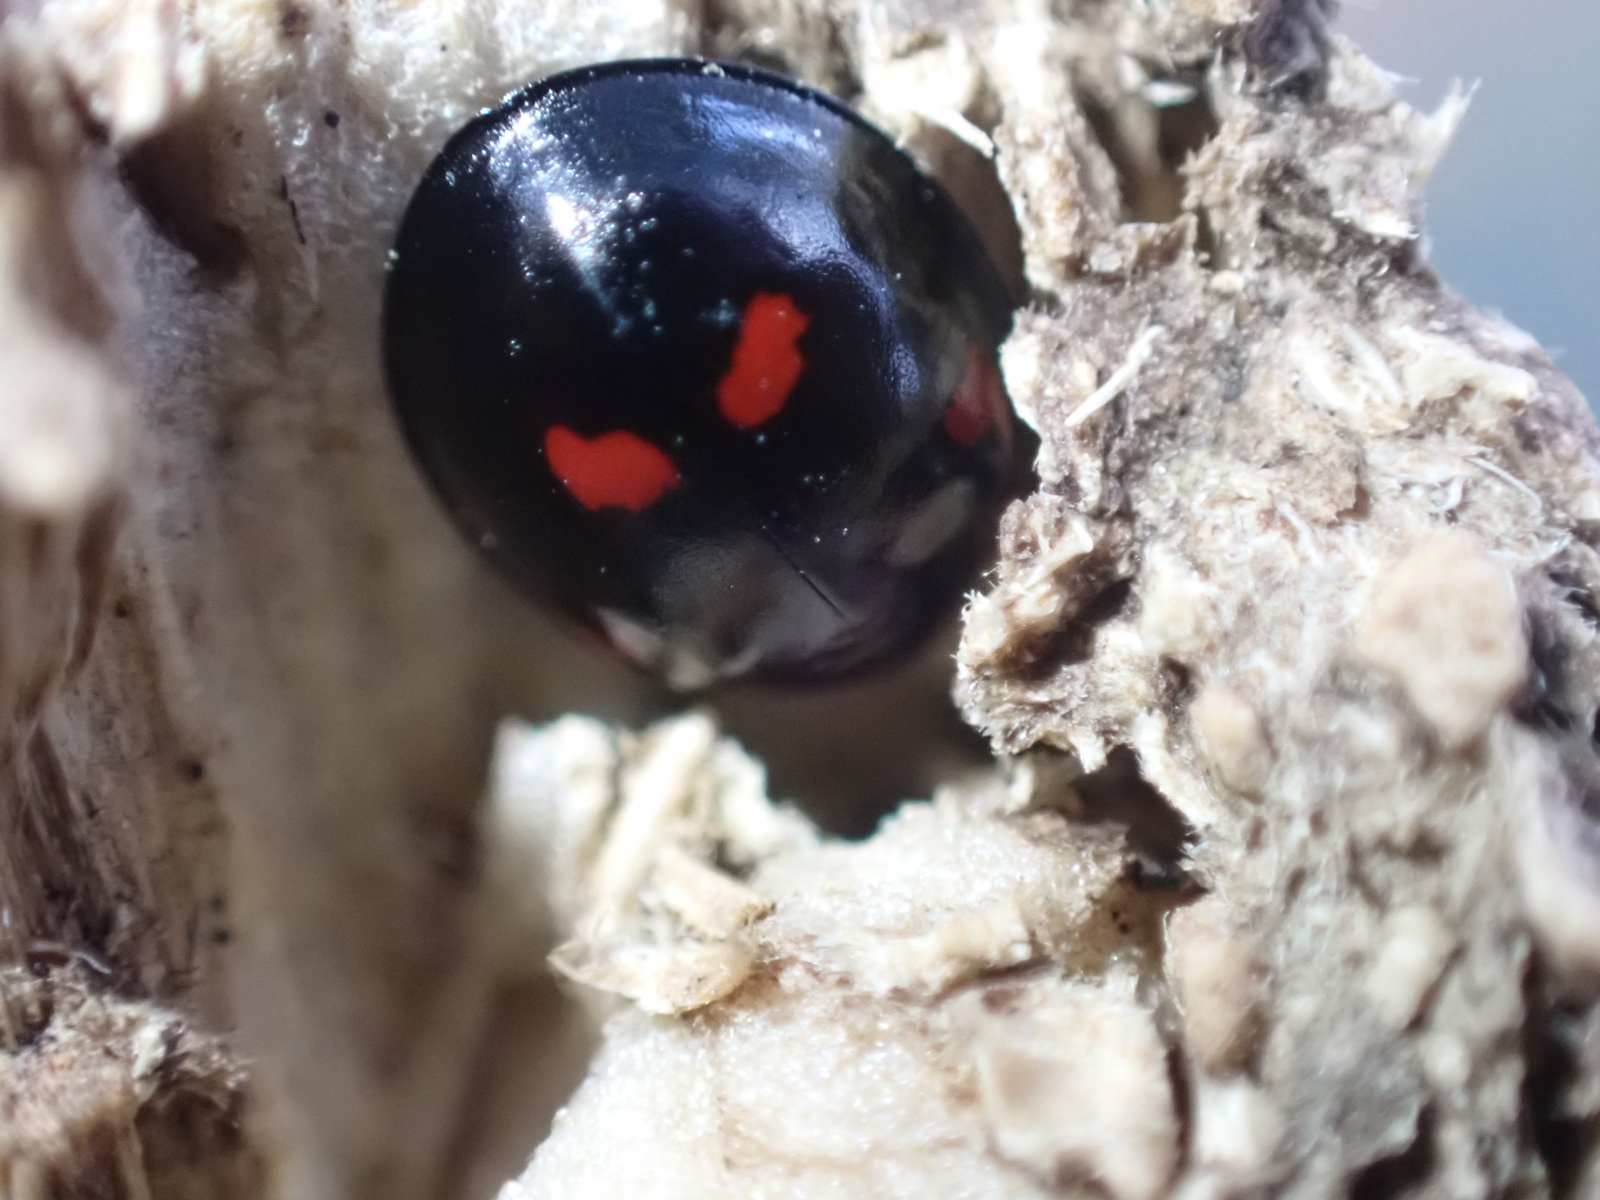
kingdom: Animalia
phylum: Arthropoda
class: Insecta
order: Coleoptera
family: Coccinellidae
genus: Brumus
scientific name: Brumus quadripustulatus
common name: Ladybird beetle
